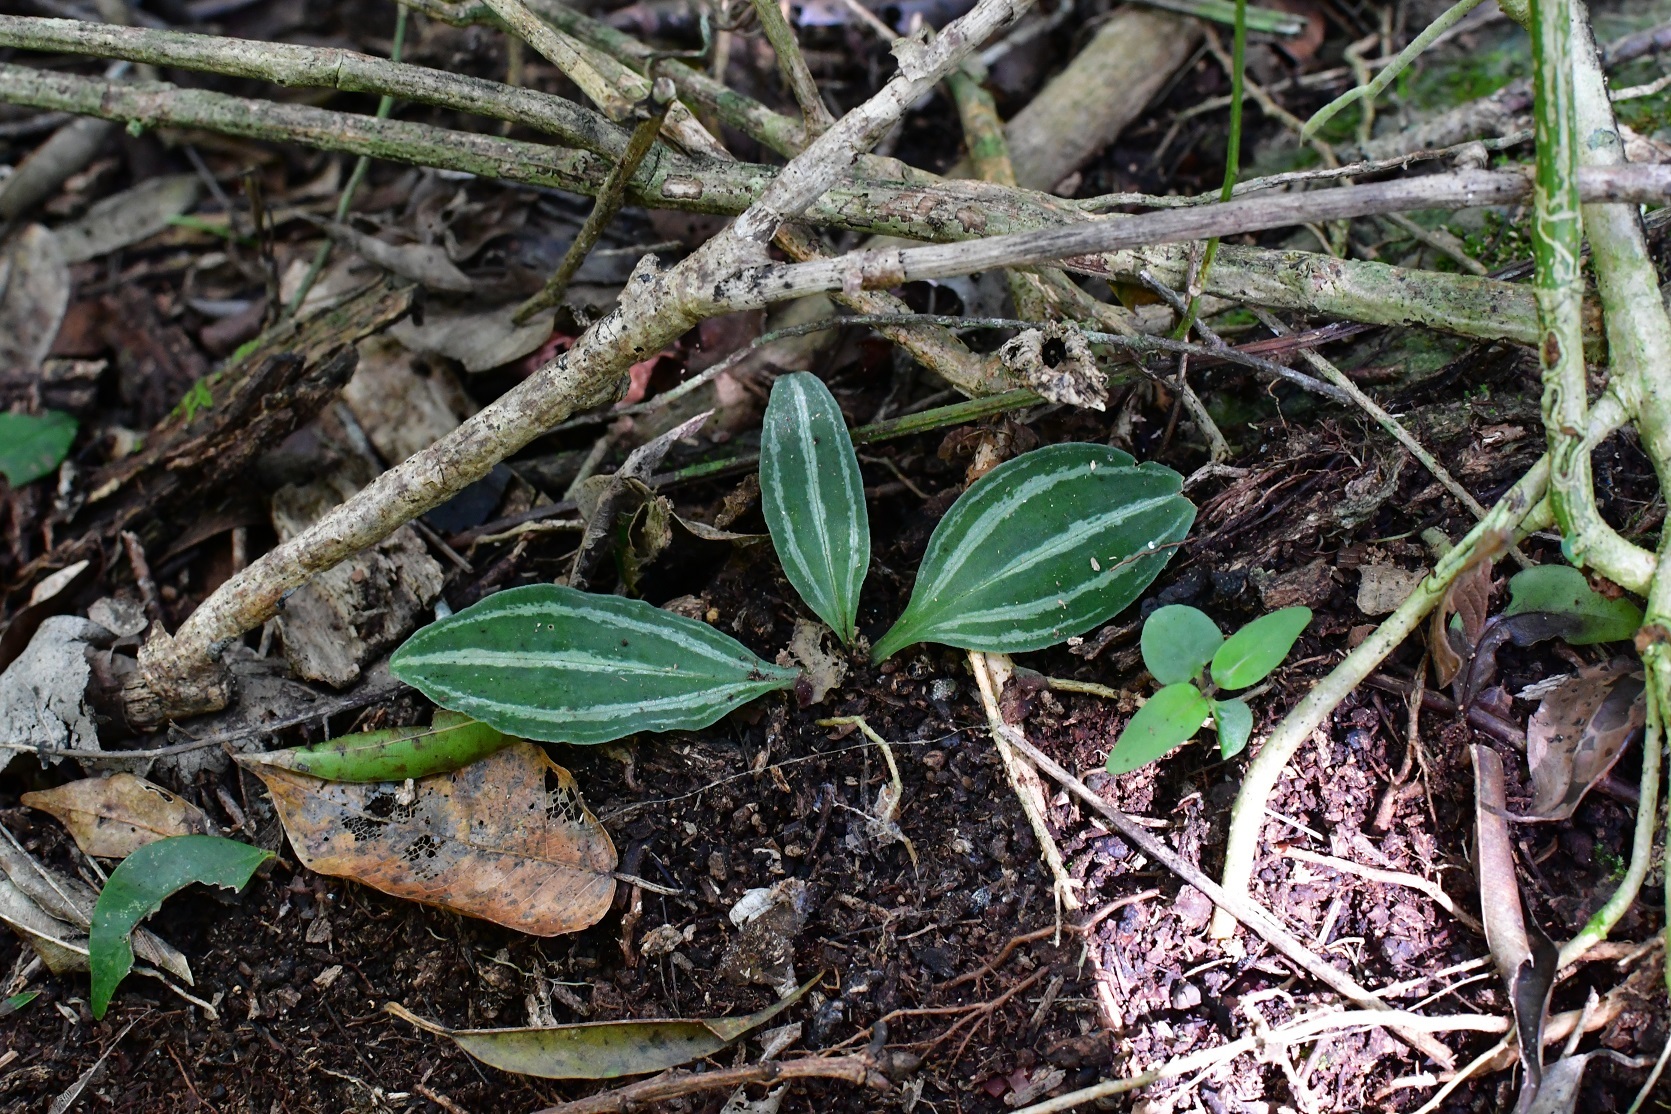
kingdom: Plantae
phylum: Tracheophyta
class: Liliopsida
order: Asparagales
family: Orchidaceae
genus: Sarcoglottis
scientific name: Sarcoglottis sceptrodes
